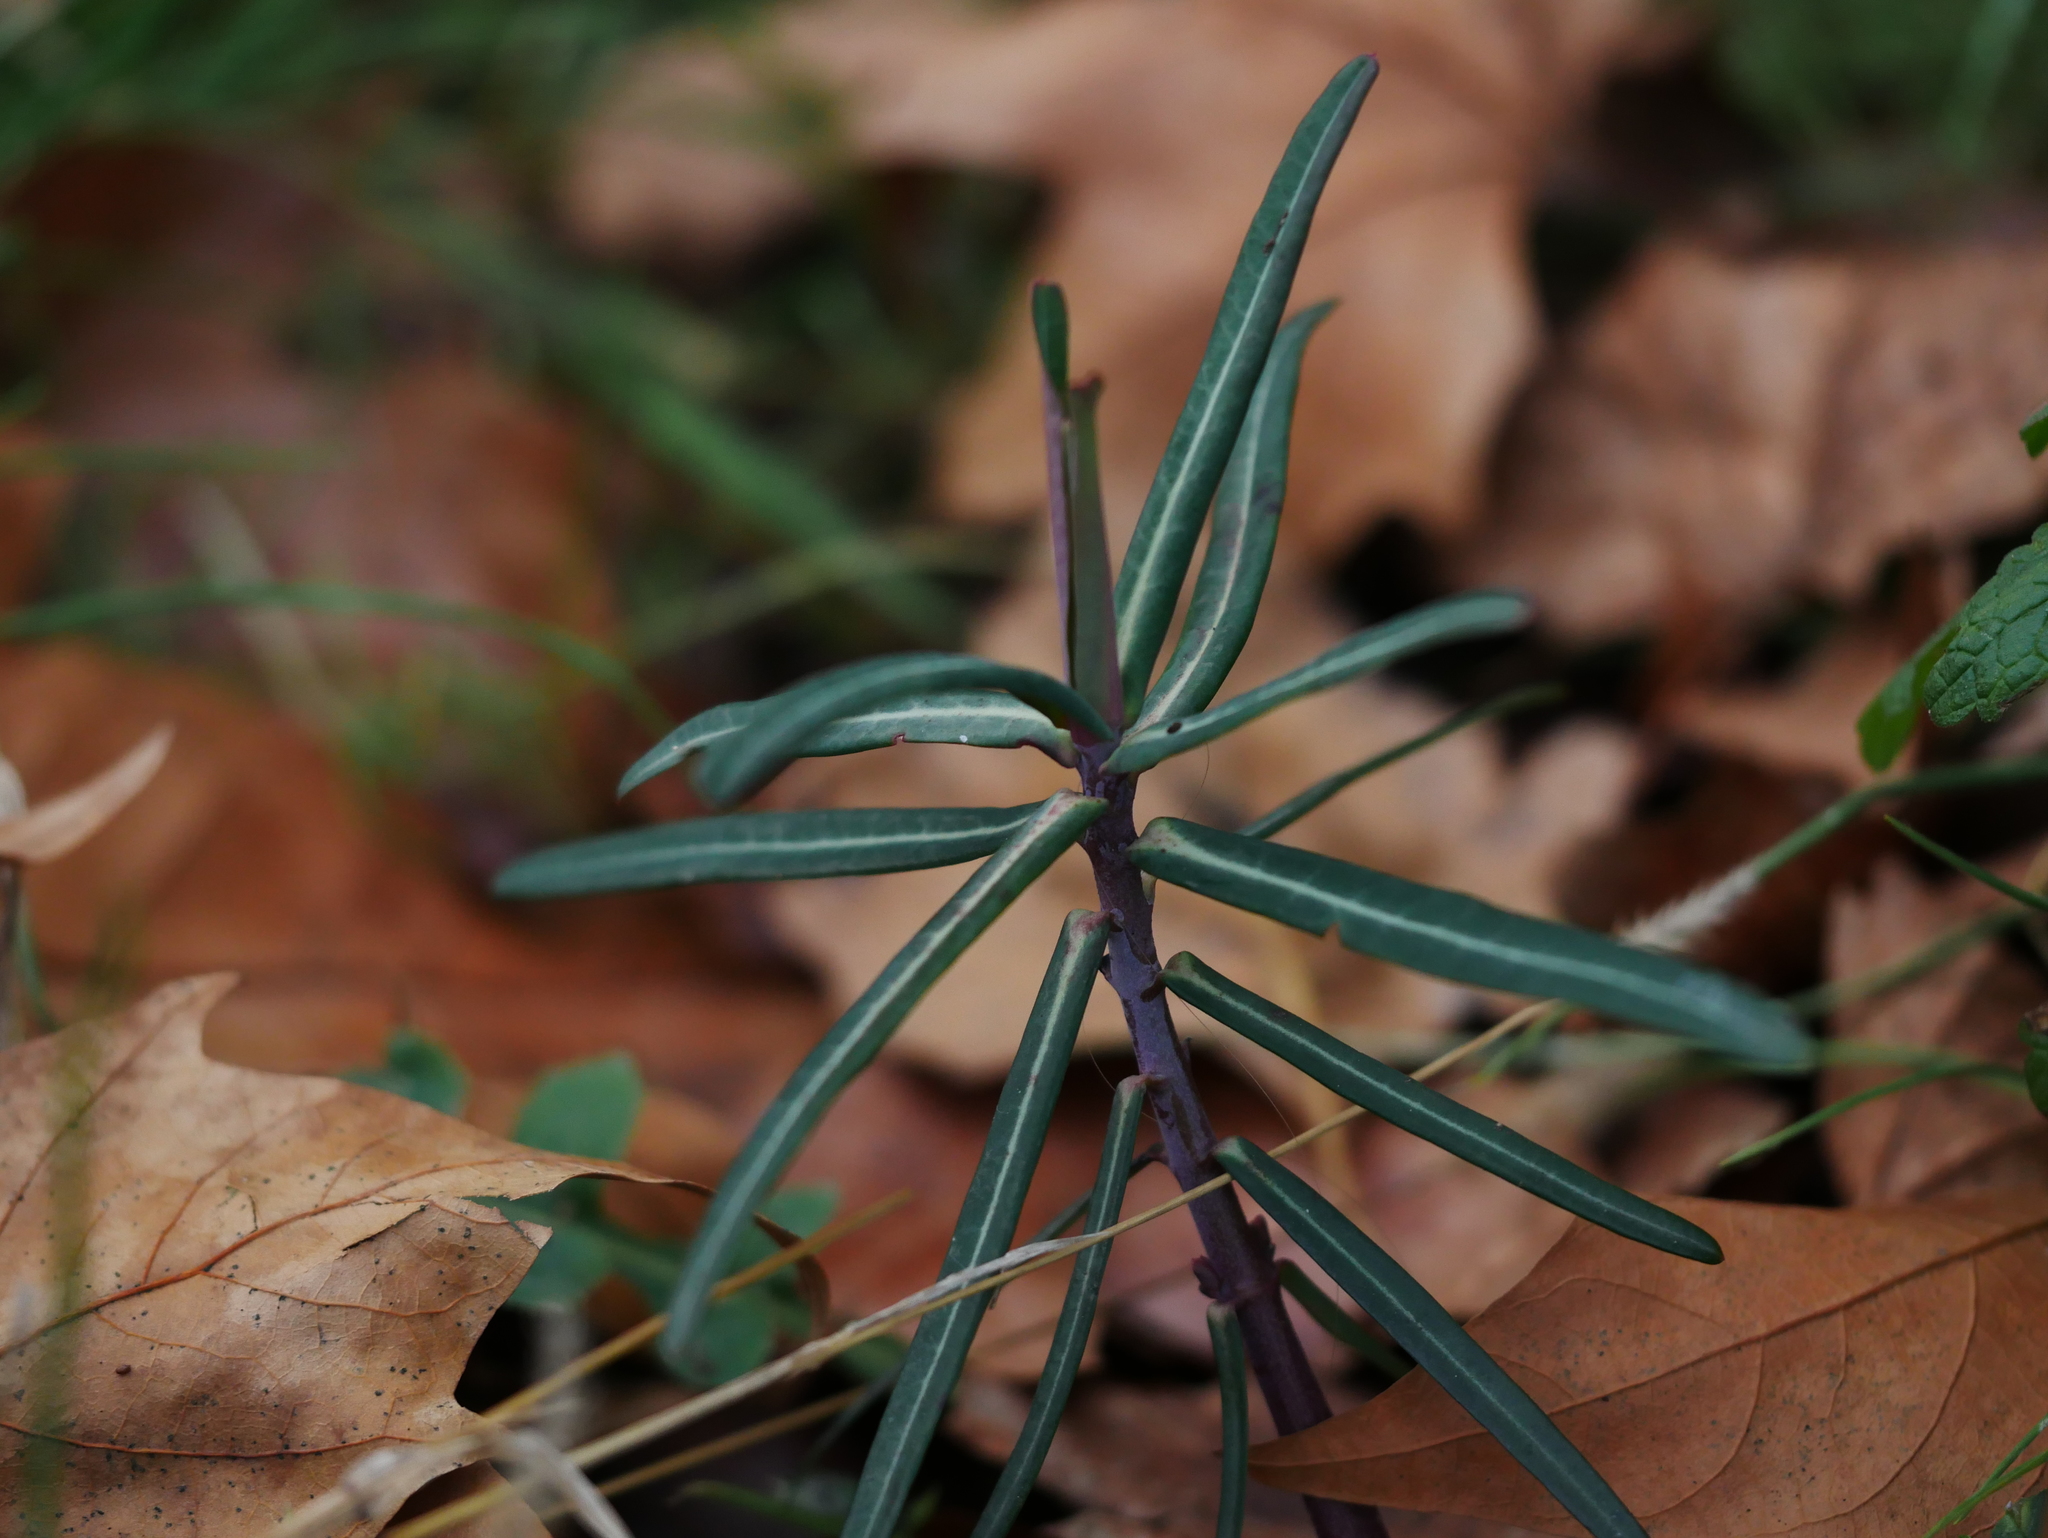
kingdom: Plantae
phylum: Tracheophyta
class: Magnoliopsida
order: Malpighiales
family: Euphorbiaceae
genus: Euphorbia
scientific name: Euphorbia lathyris
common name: Caper spurge
